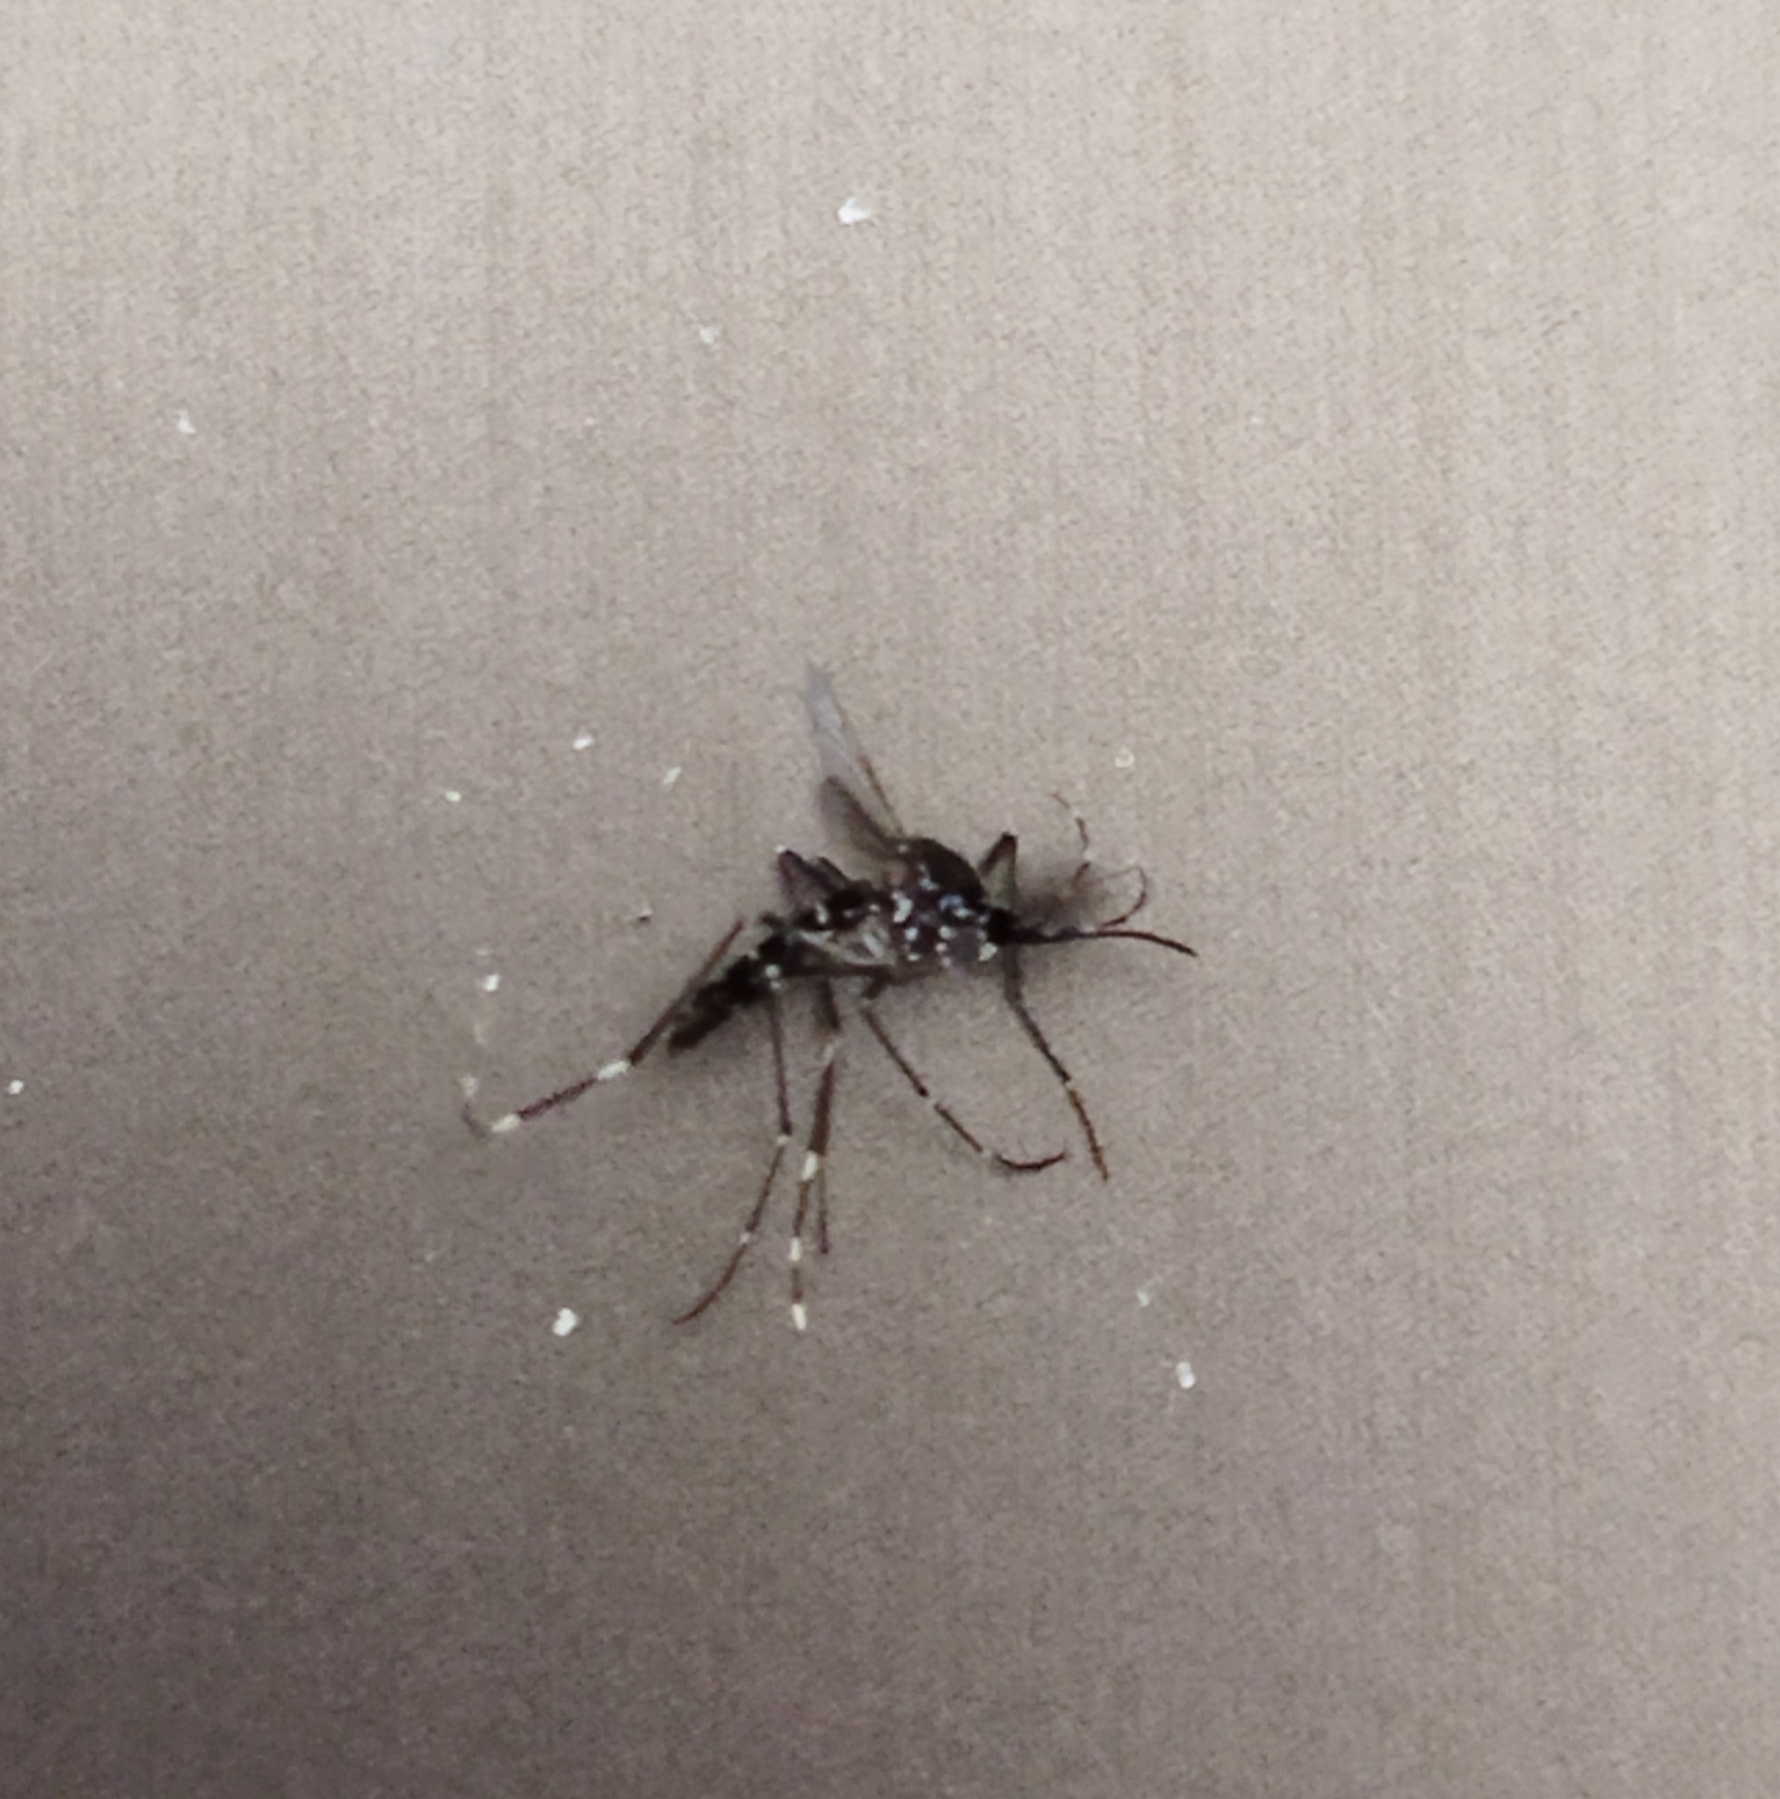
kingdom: Animalia
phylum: Arthropoda
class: Insecta
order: Diptera
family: Culicidae
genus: Aedes
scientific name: Aedes albopictus
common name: Tiger mosquito
